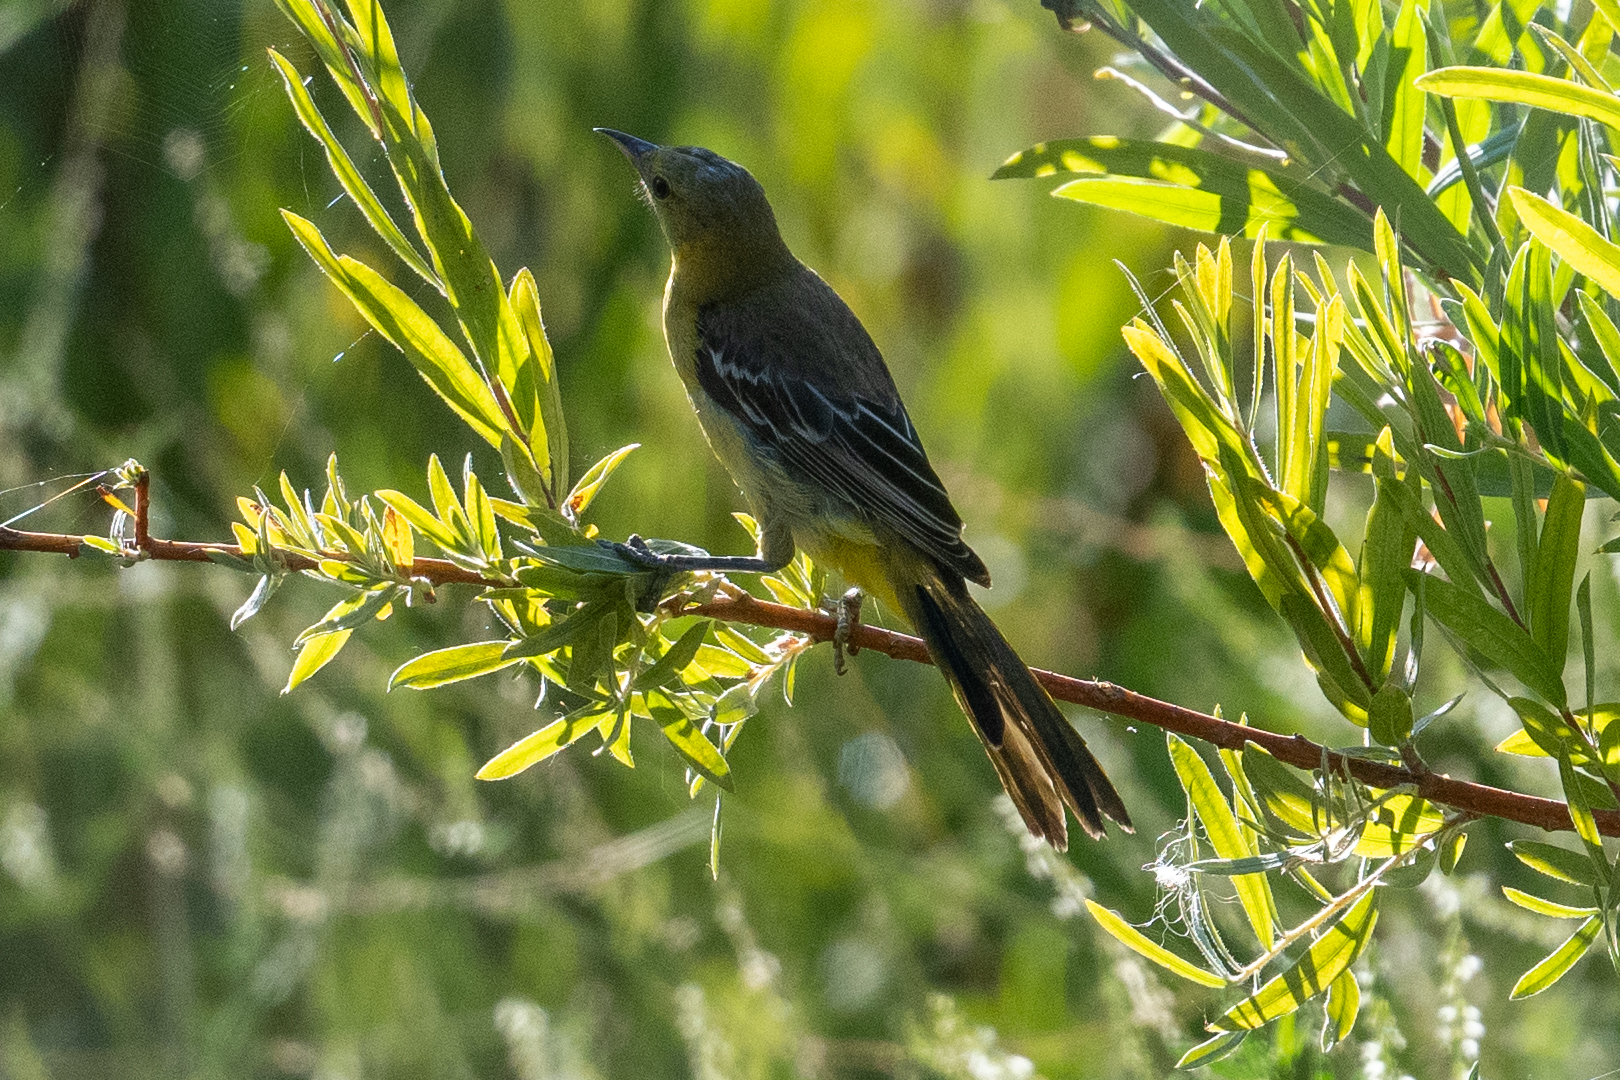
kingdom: Animalia
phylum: Chordata
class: Aves
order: Passeriformes
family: Icteridae
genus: Icterus
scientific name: Icterus cucullatus
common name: Hooded oriole
